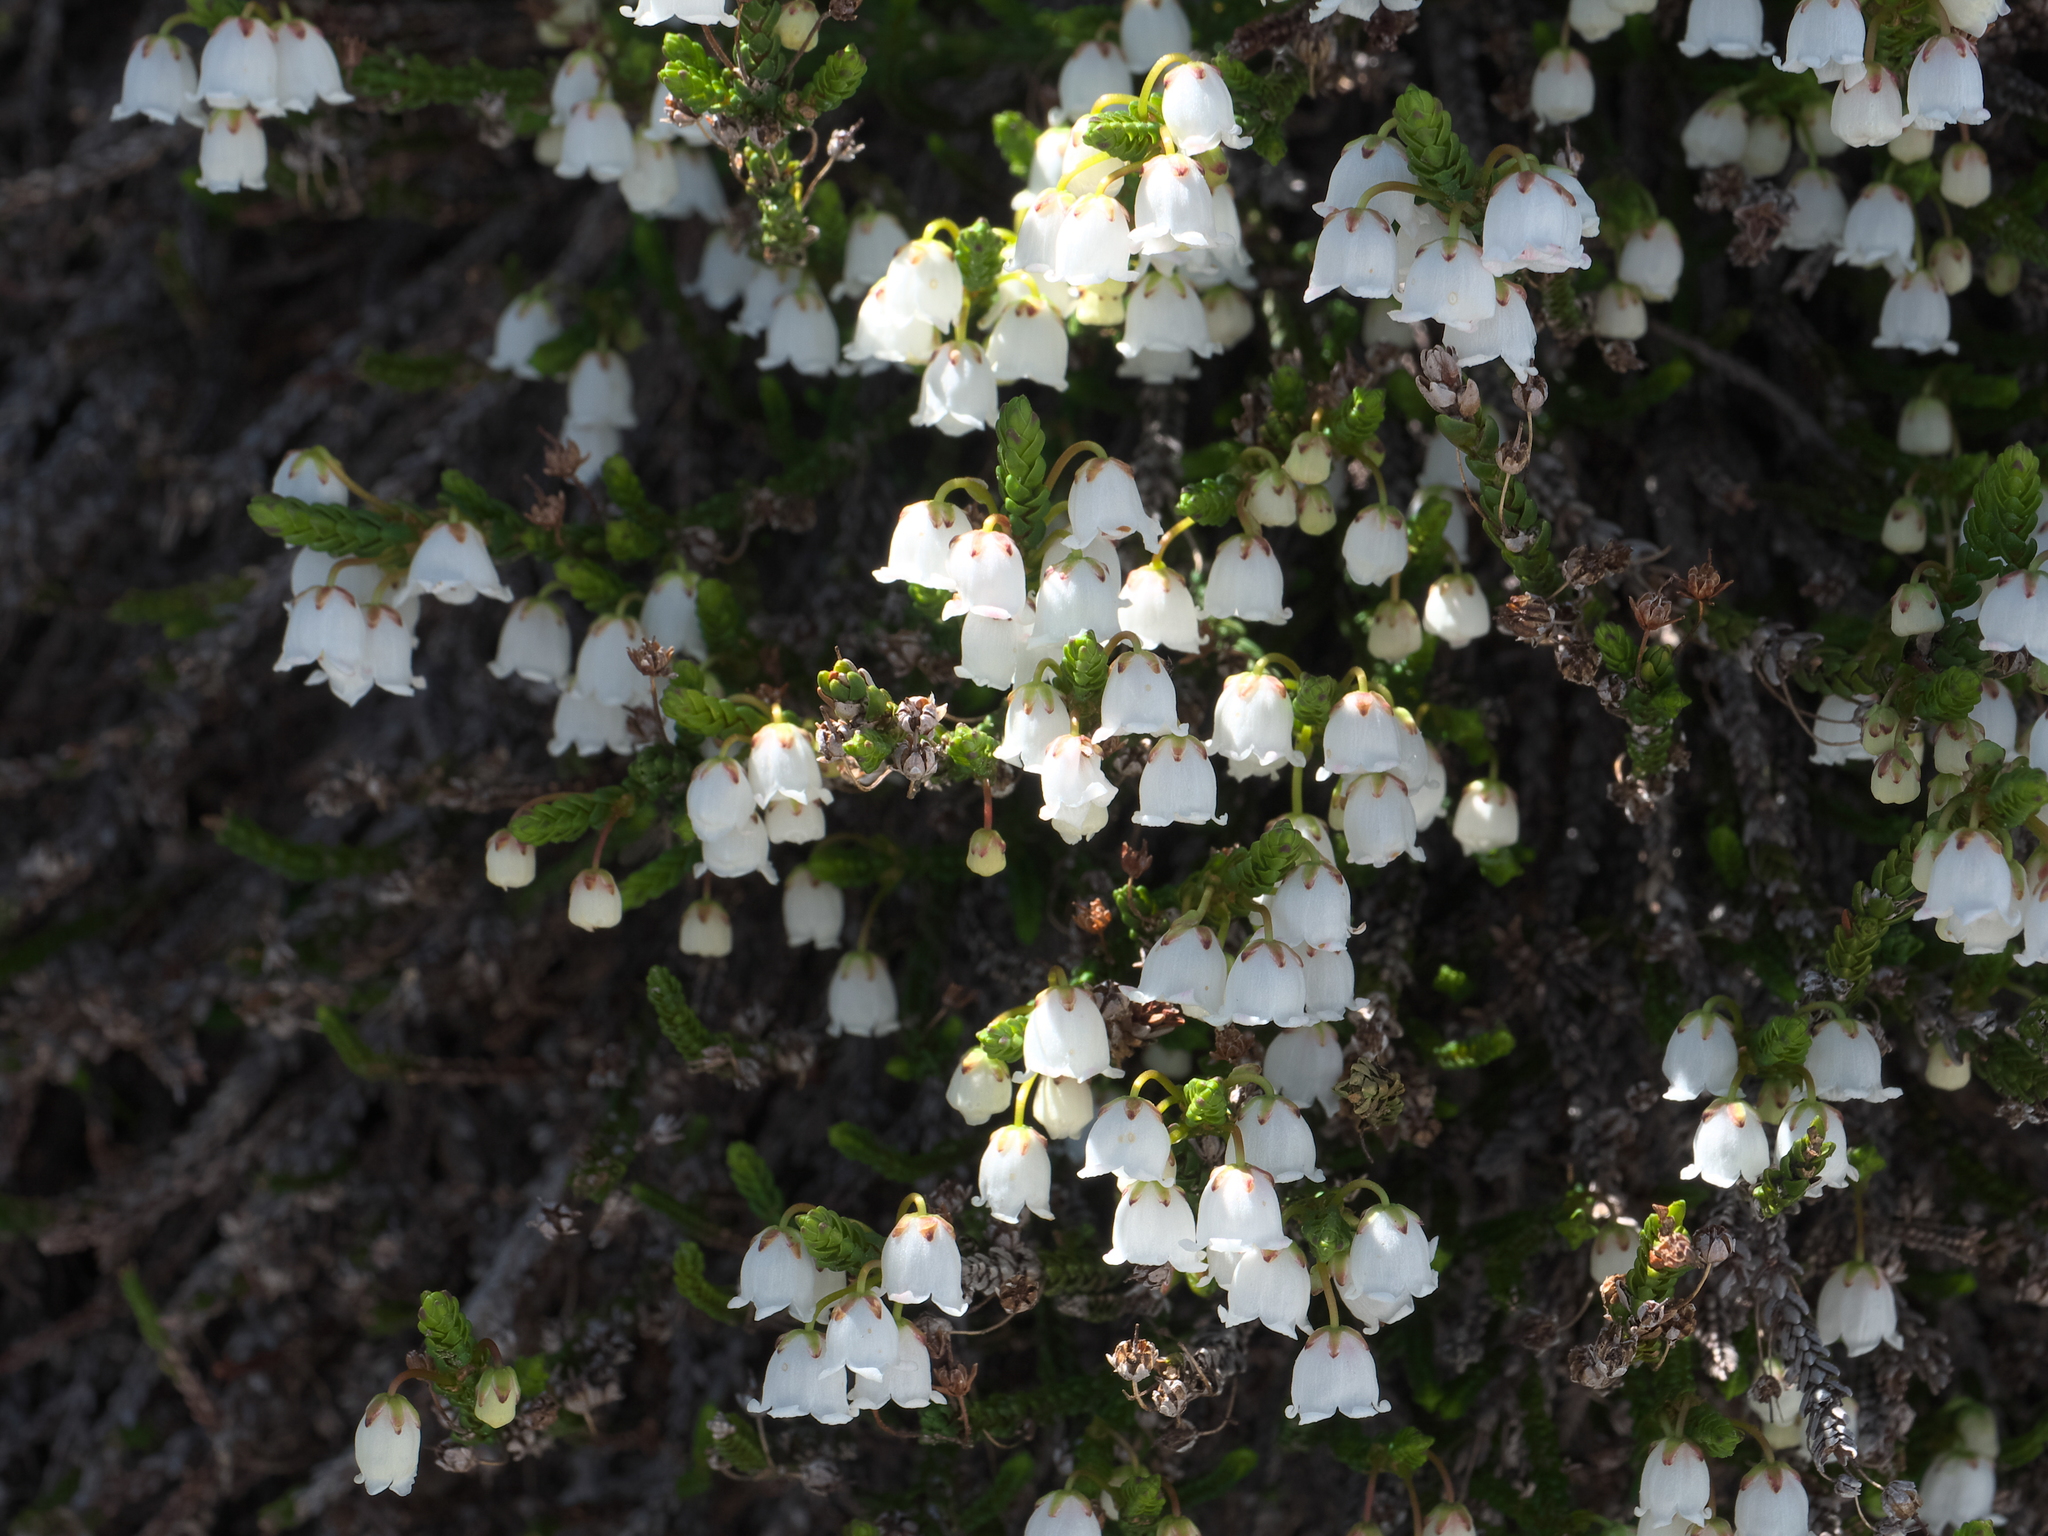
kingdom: Plantae
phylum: Tracheophyta
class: Magnoliopsida
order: Ericales
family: Ericaceae
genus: Cassiope
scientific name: Cassiope mertensiana
